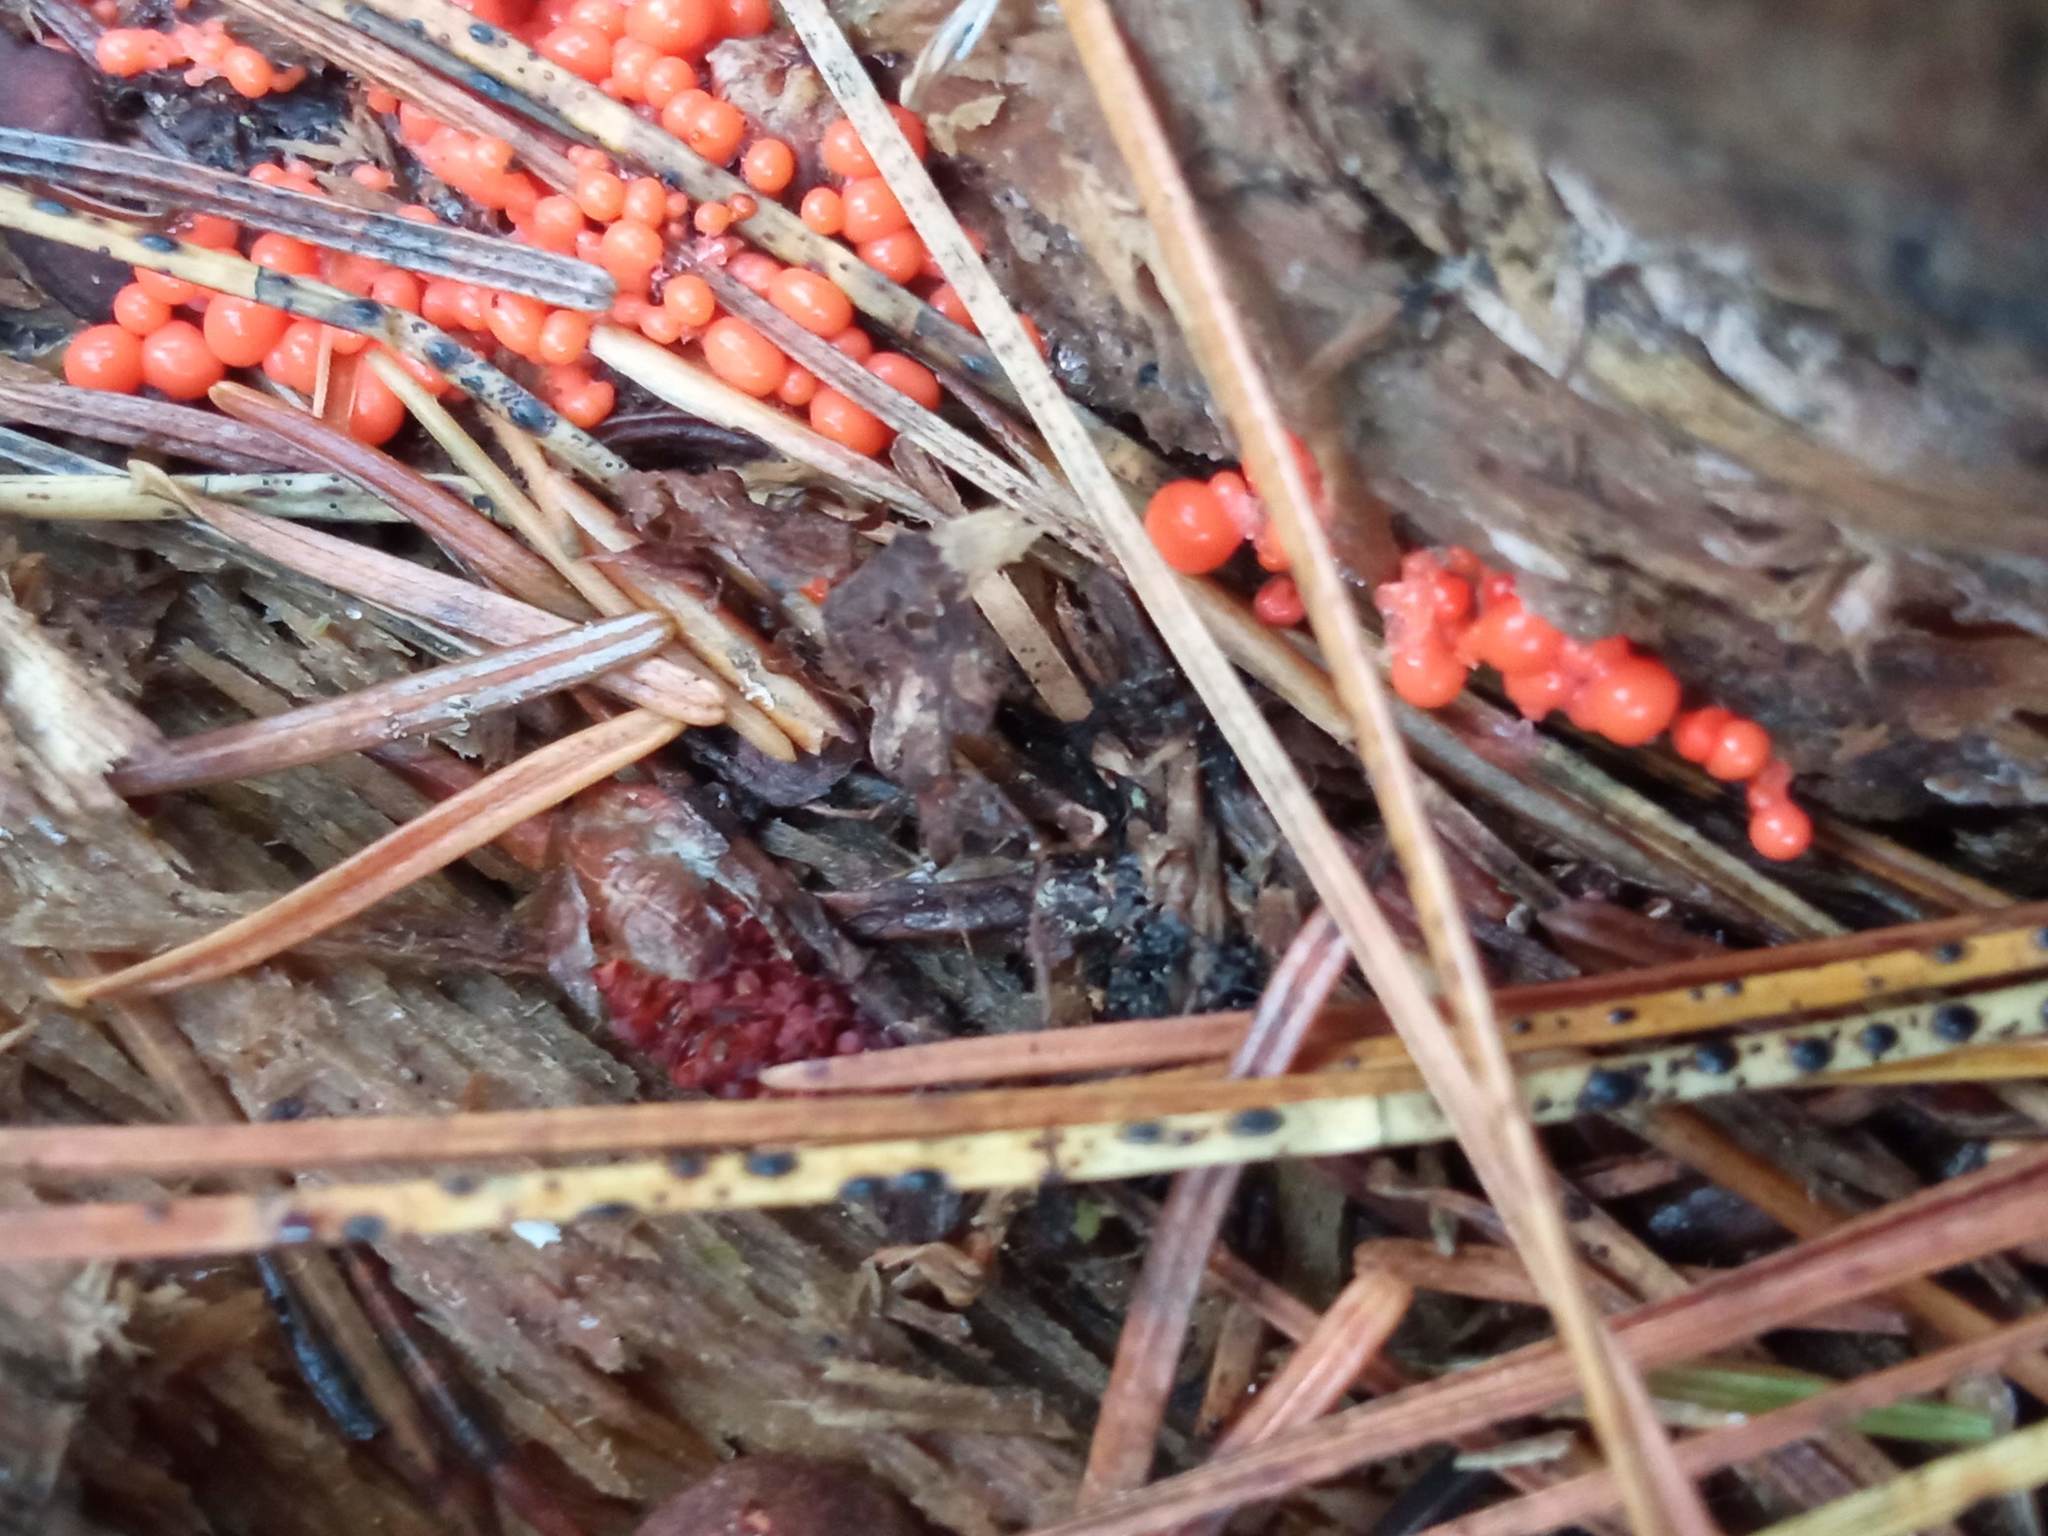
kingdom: Protozoa
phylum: Mycetozoa
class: Myxomycetes
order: Trichiales
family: Arcyriaceae
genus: Hemitrichia
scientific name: Hemitrichia decipiens
